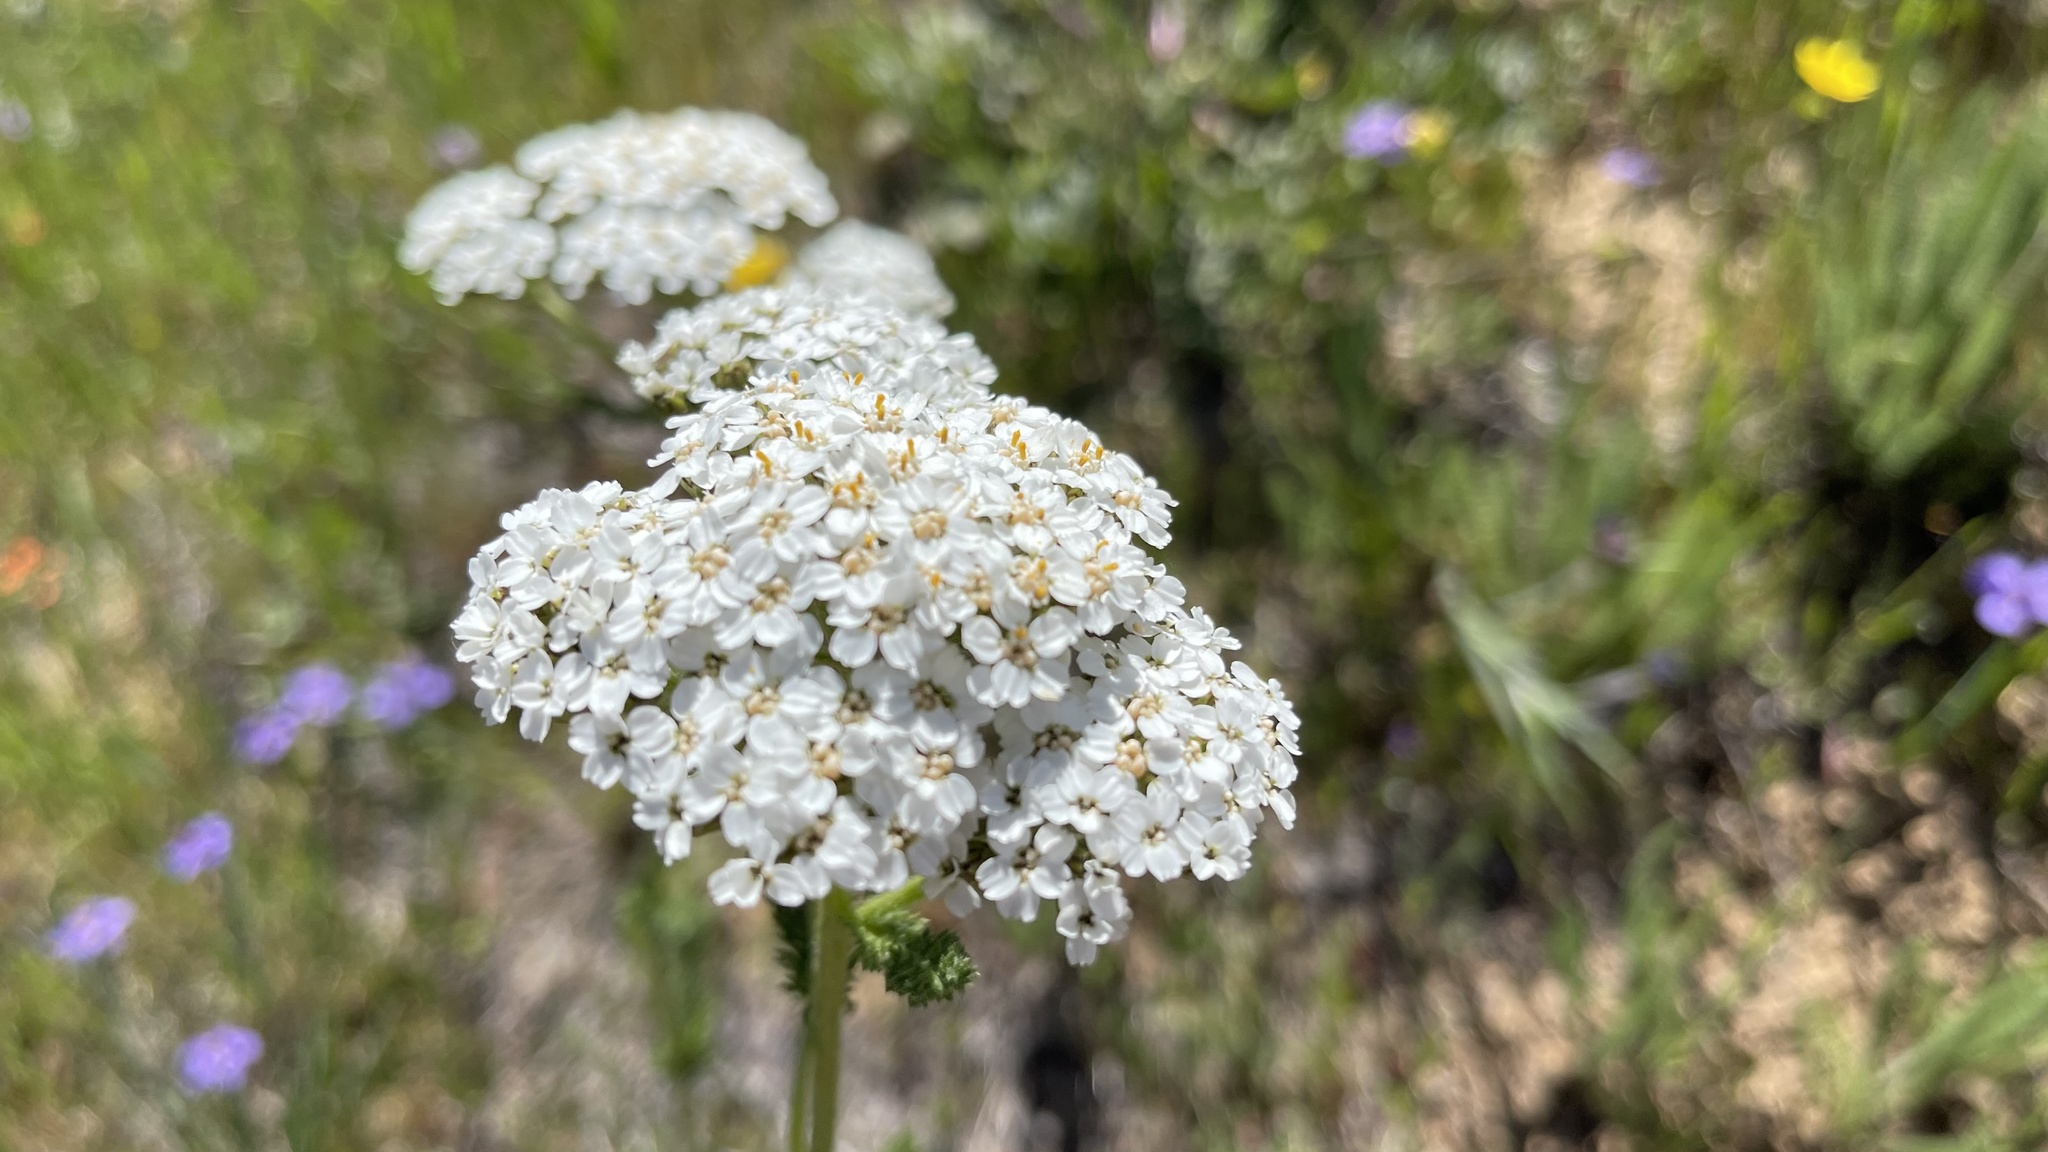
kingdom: Plantae
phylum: Tracheophyta
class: Magnoliopsida
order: Asterales
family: Asteraceae
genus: Achillea
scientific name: Achillea millefolium
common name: Yarrow
